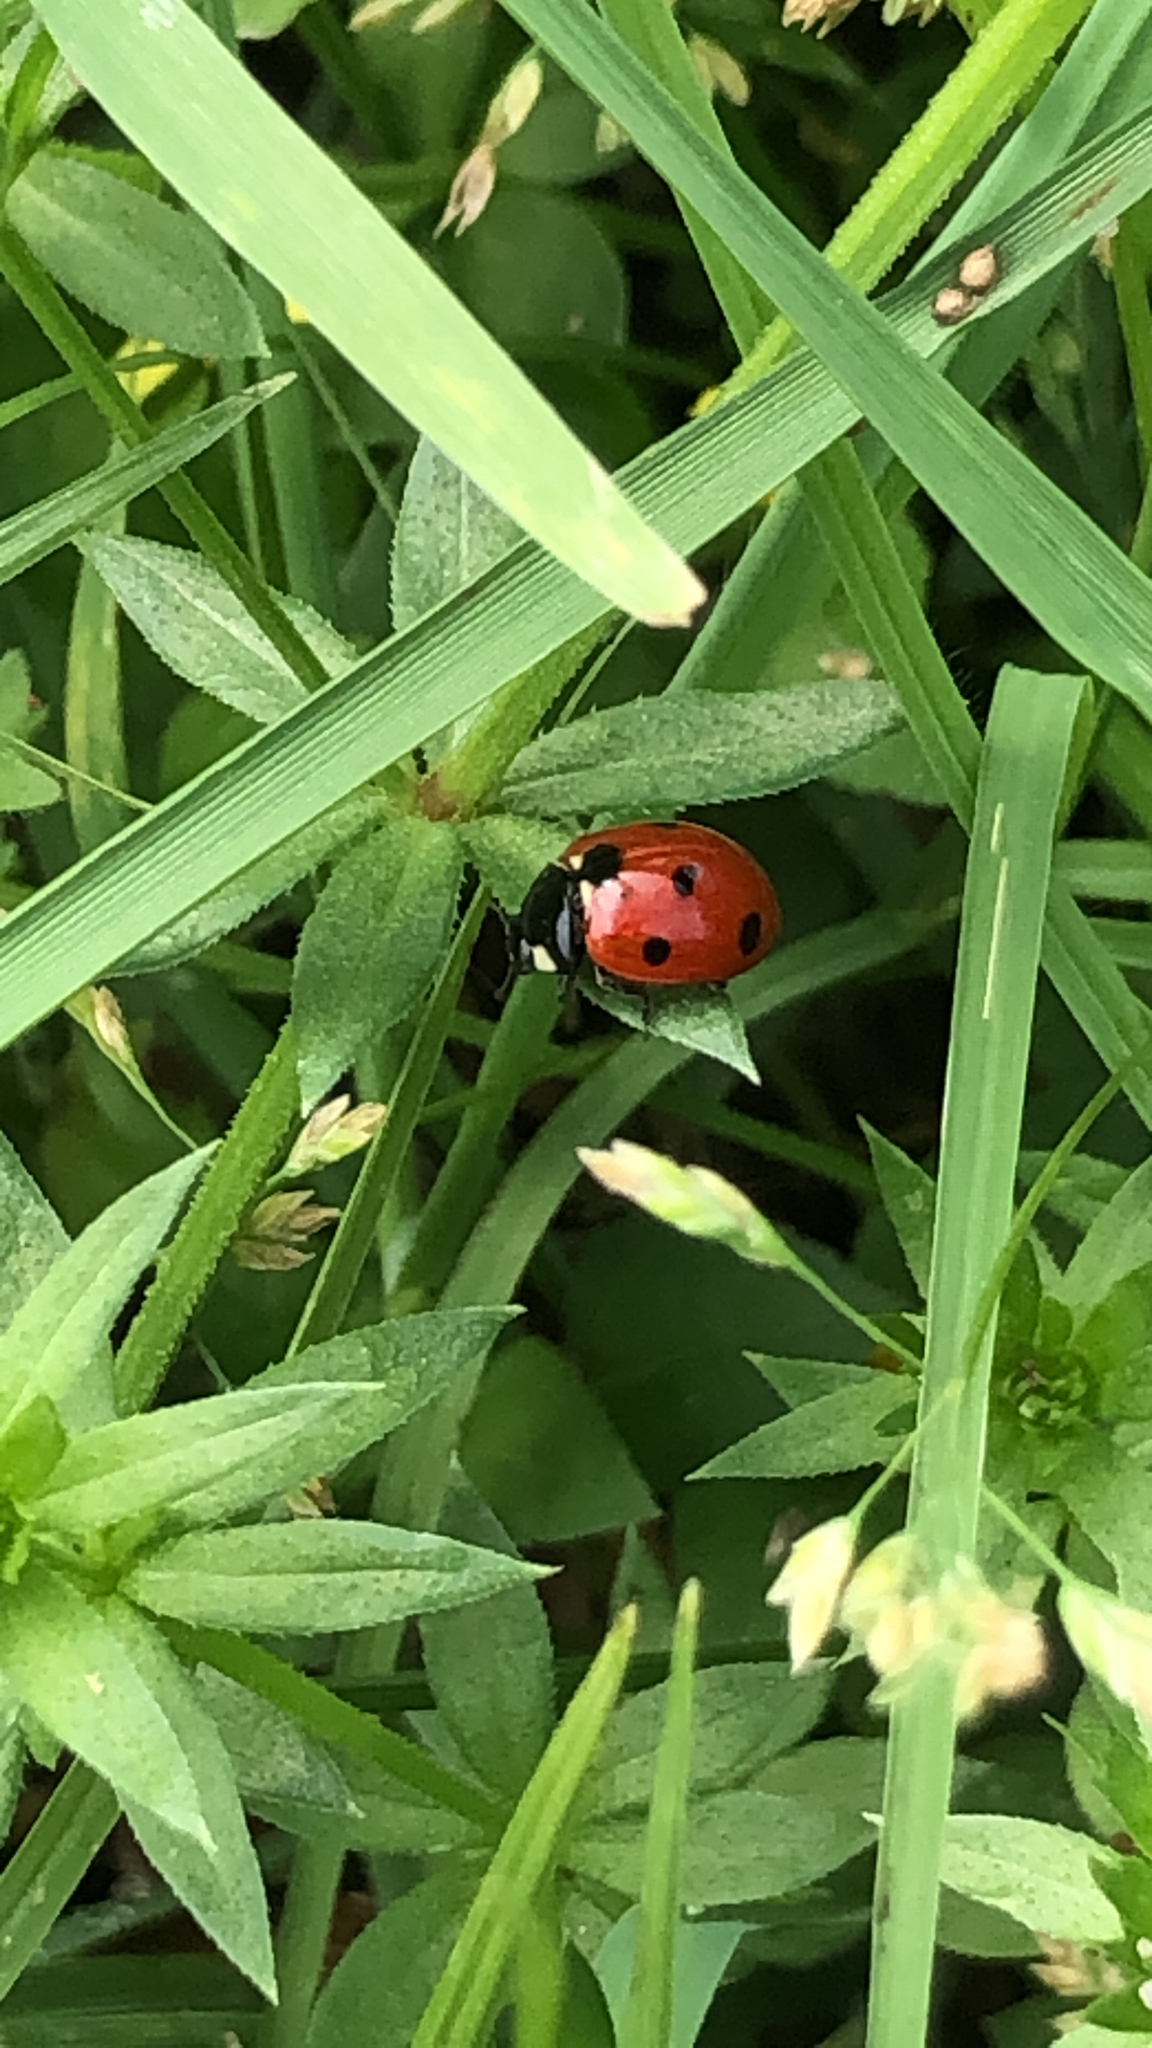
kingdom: Animalia
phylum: Arthropoda
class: Insecta
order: Coleoptera
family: Coccinellidae
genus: Coccinella
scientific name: Coccinella septempunctata
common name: Sevenspotted lady beetle
